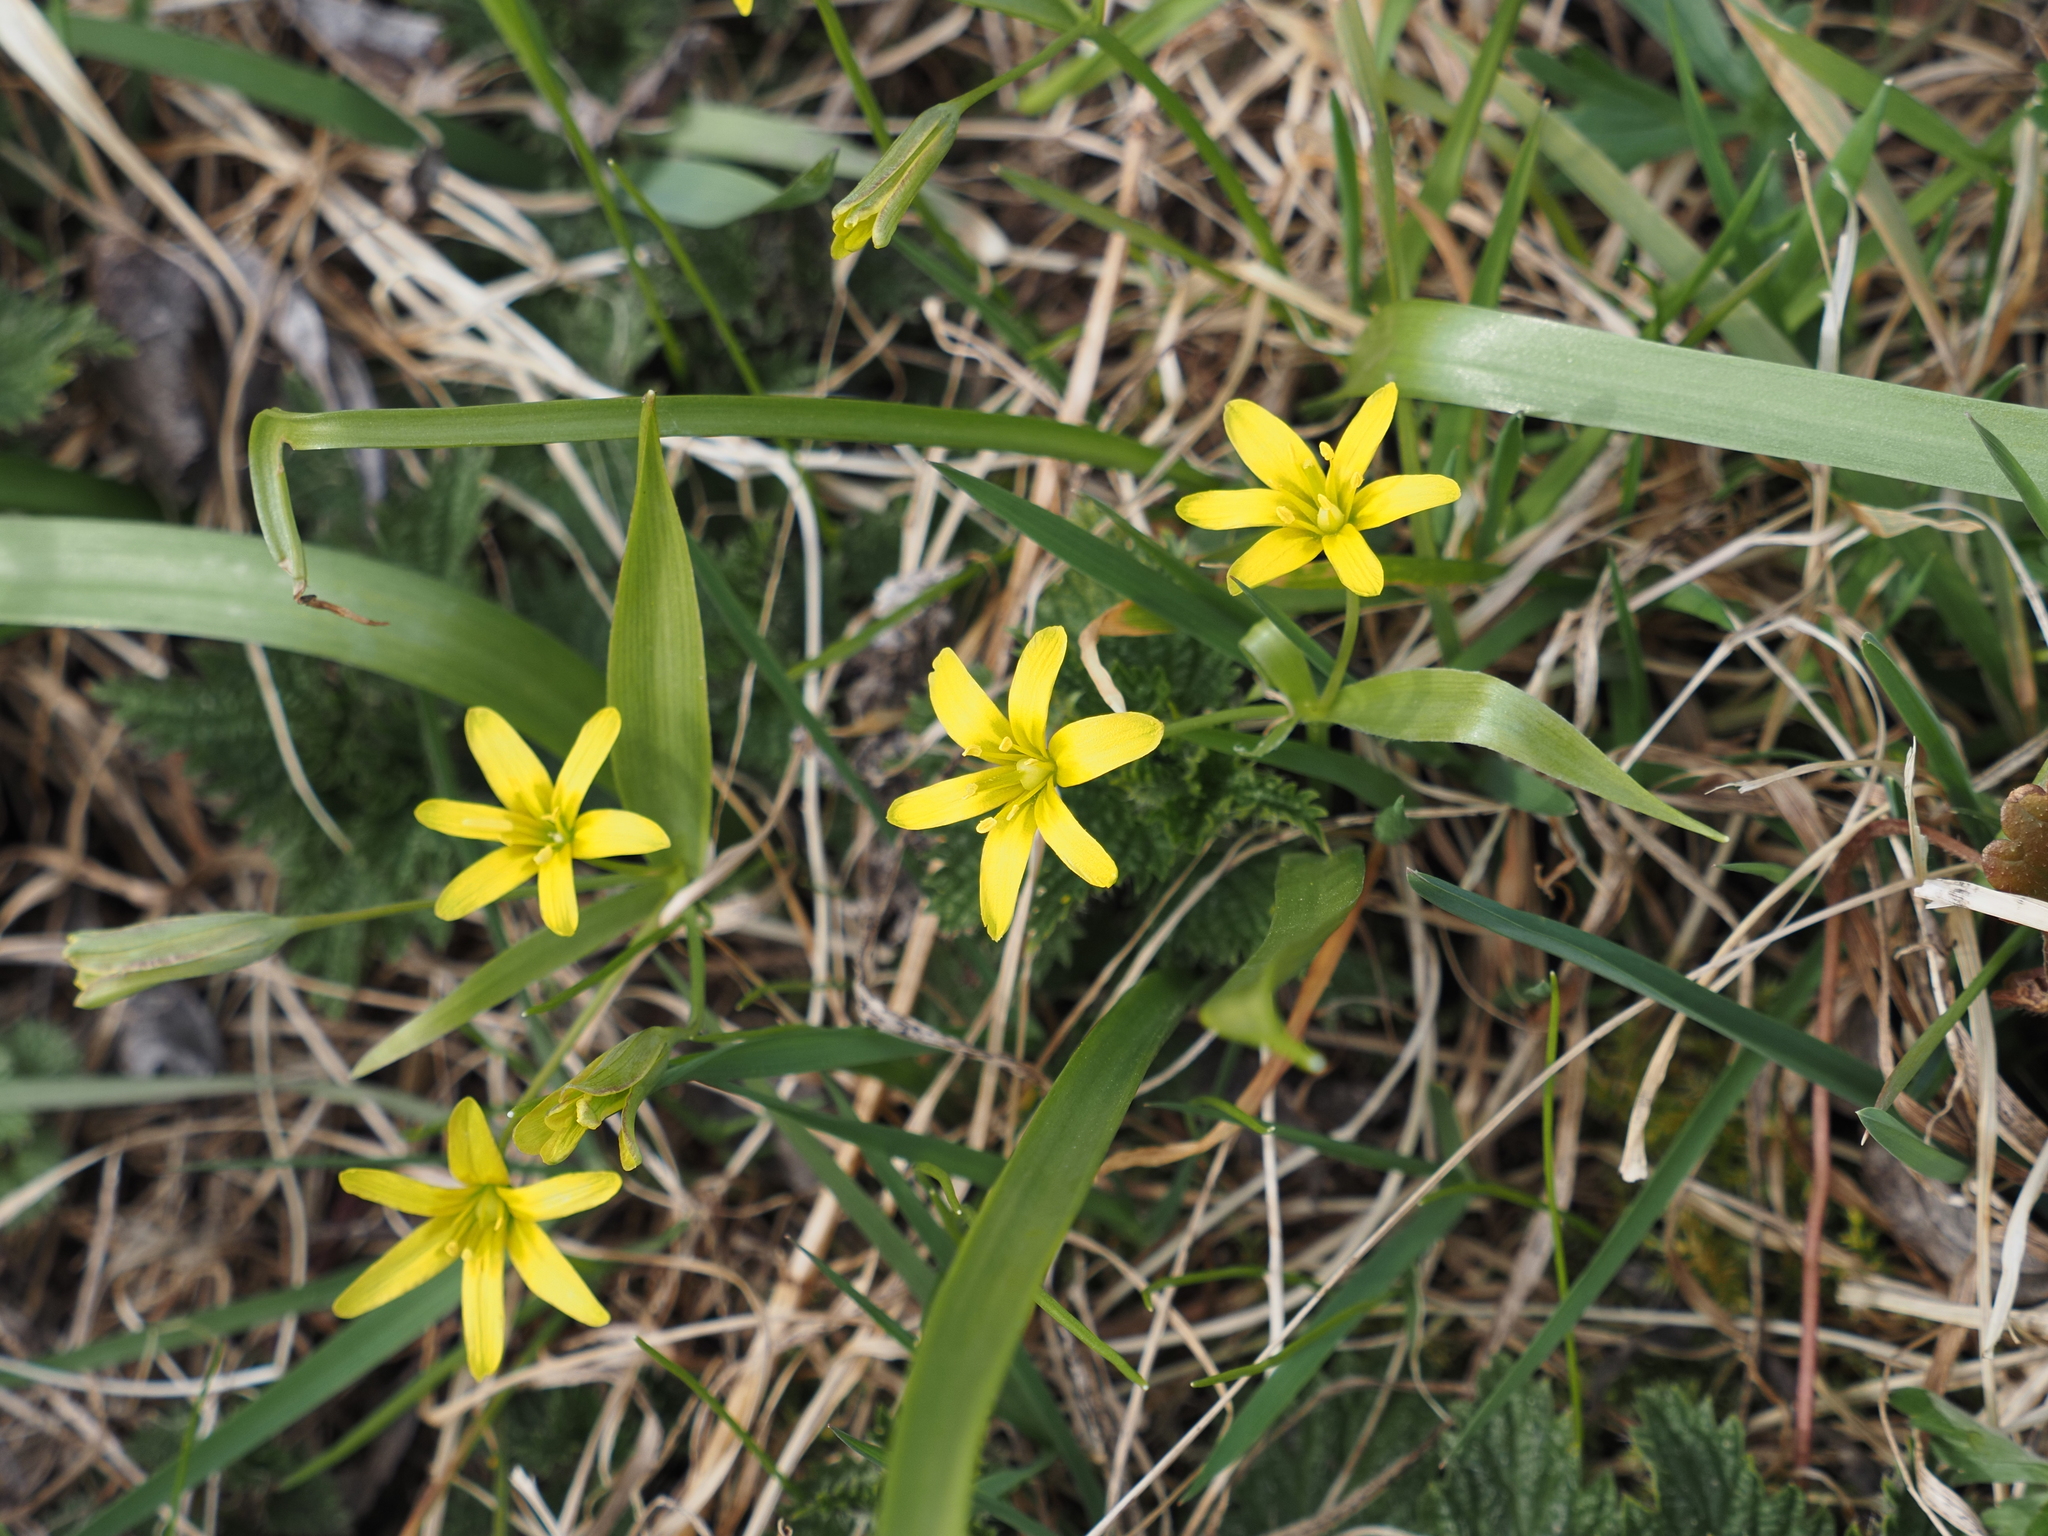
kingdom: Plantae
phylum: Tracheophyta
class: Liliopsida
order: Liliales
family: Liliaceae
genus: Gagea
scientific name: Gagea lutea
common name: Yellow star-of-bethlehem
